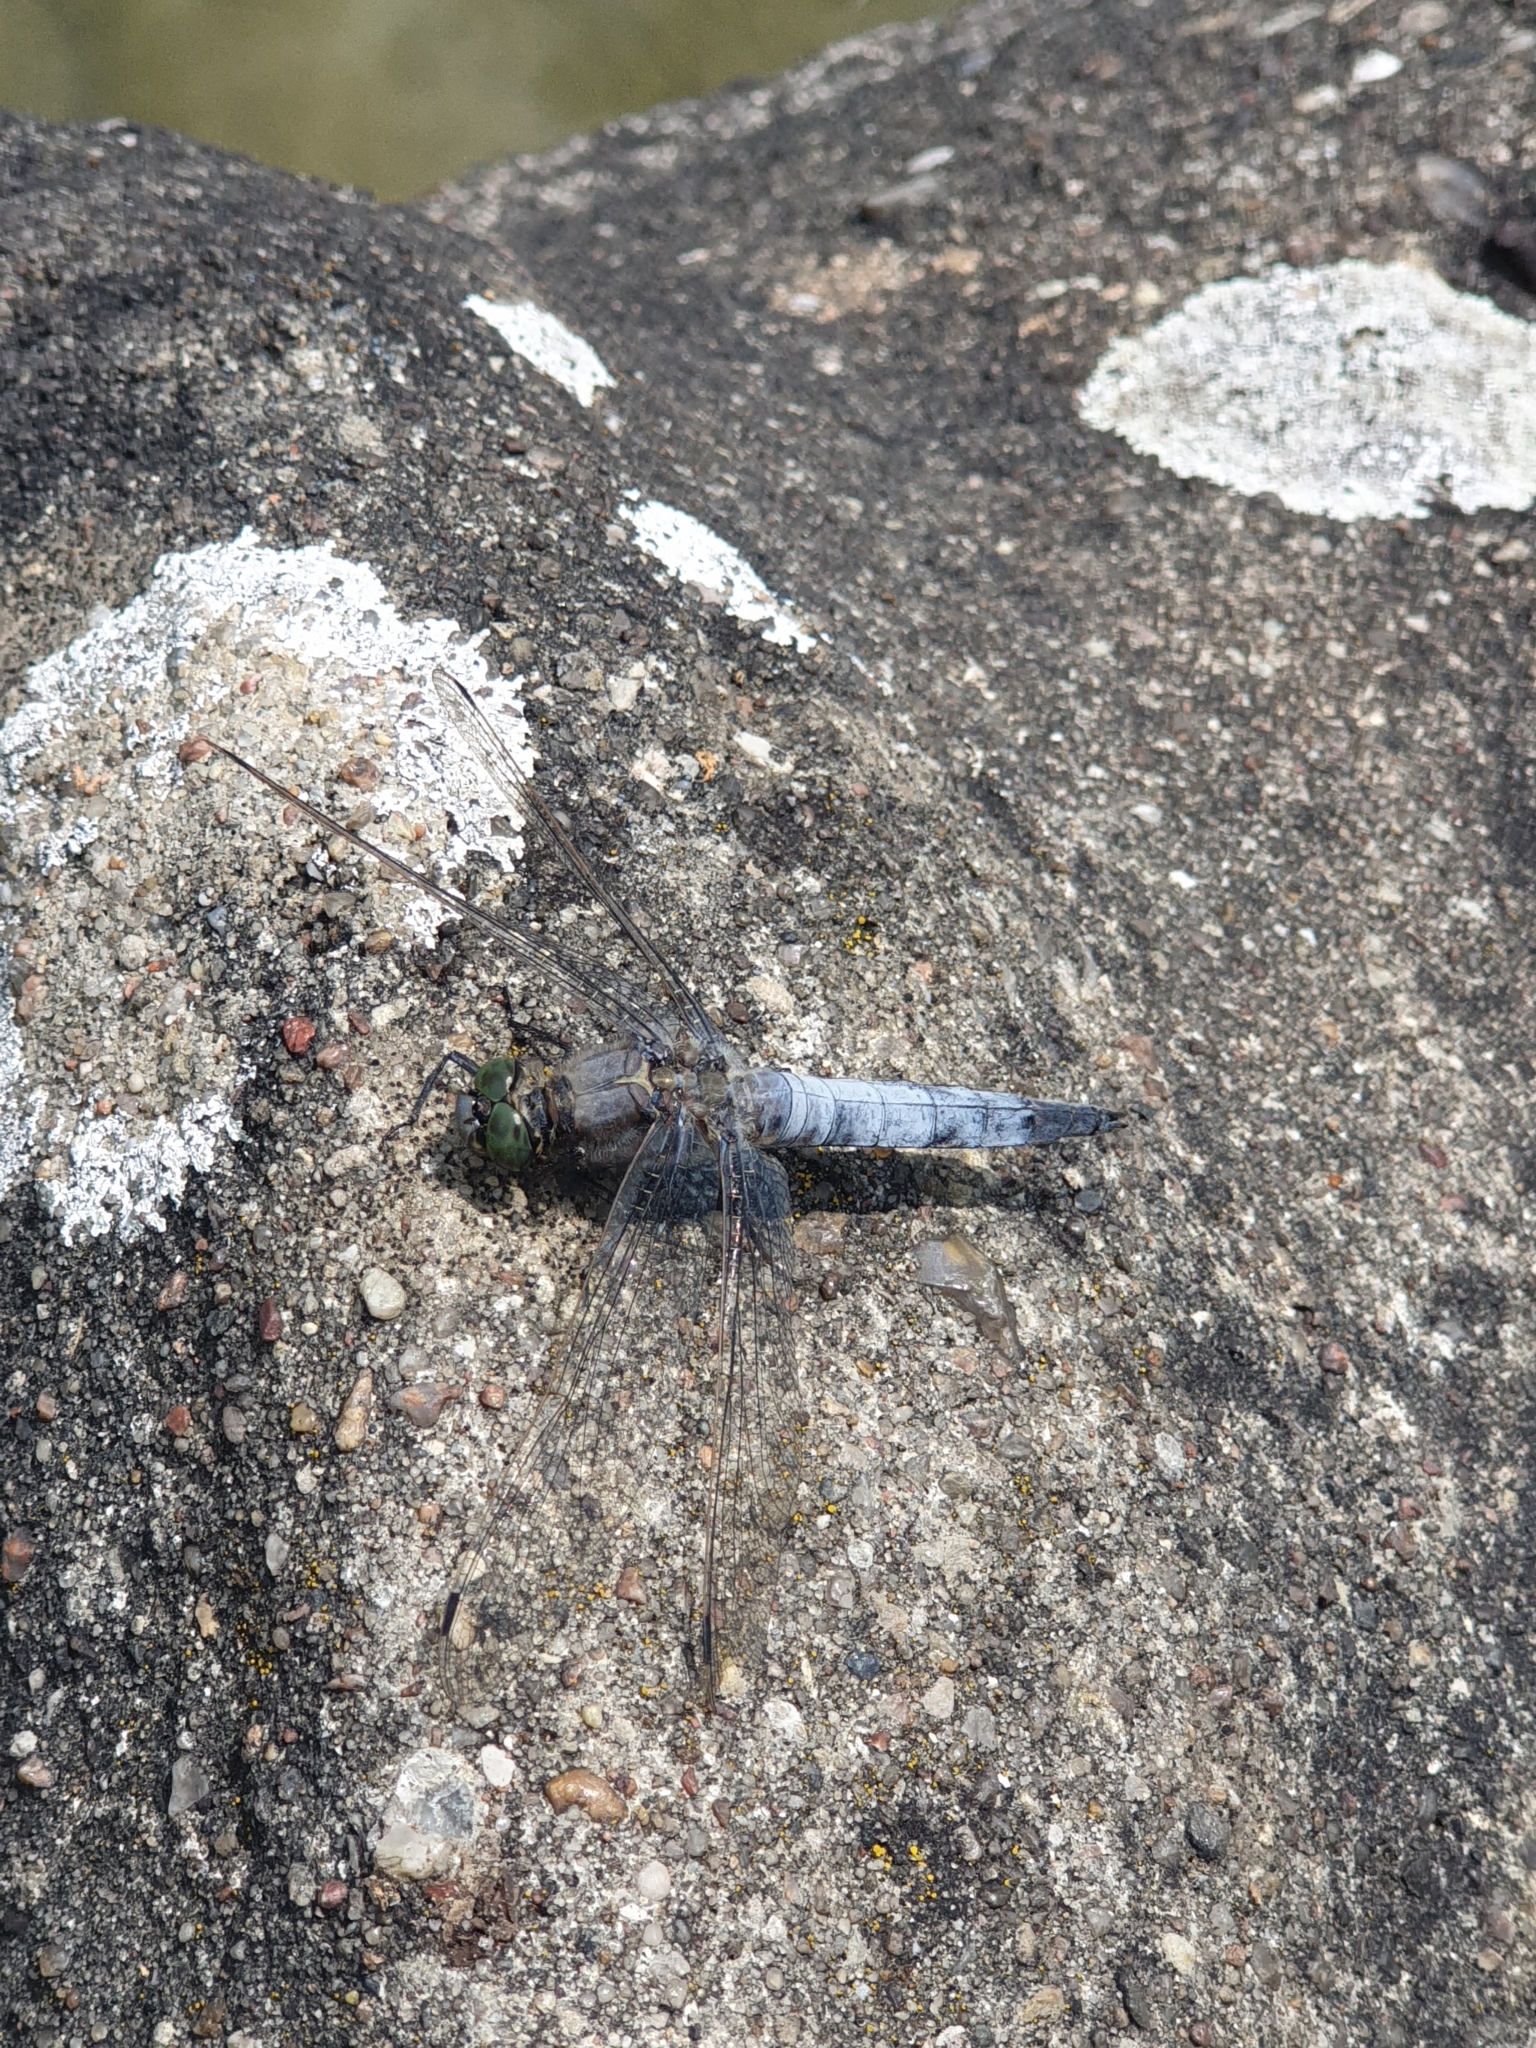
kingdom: Animalia
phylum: Arthropoda
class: Insecta
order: Odonata
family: Libellulidae
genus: Orthetrum
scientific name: Orthetrum cancellatum
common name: Black-tailed skimmer
